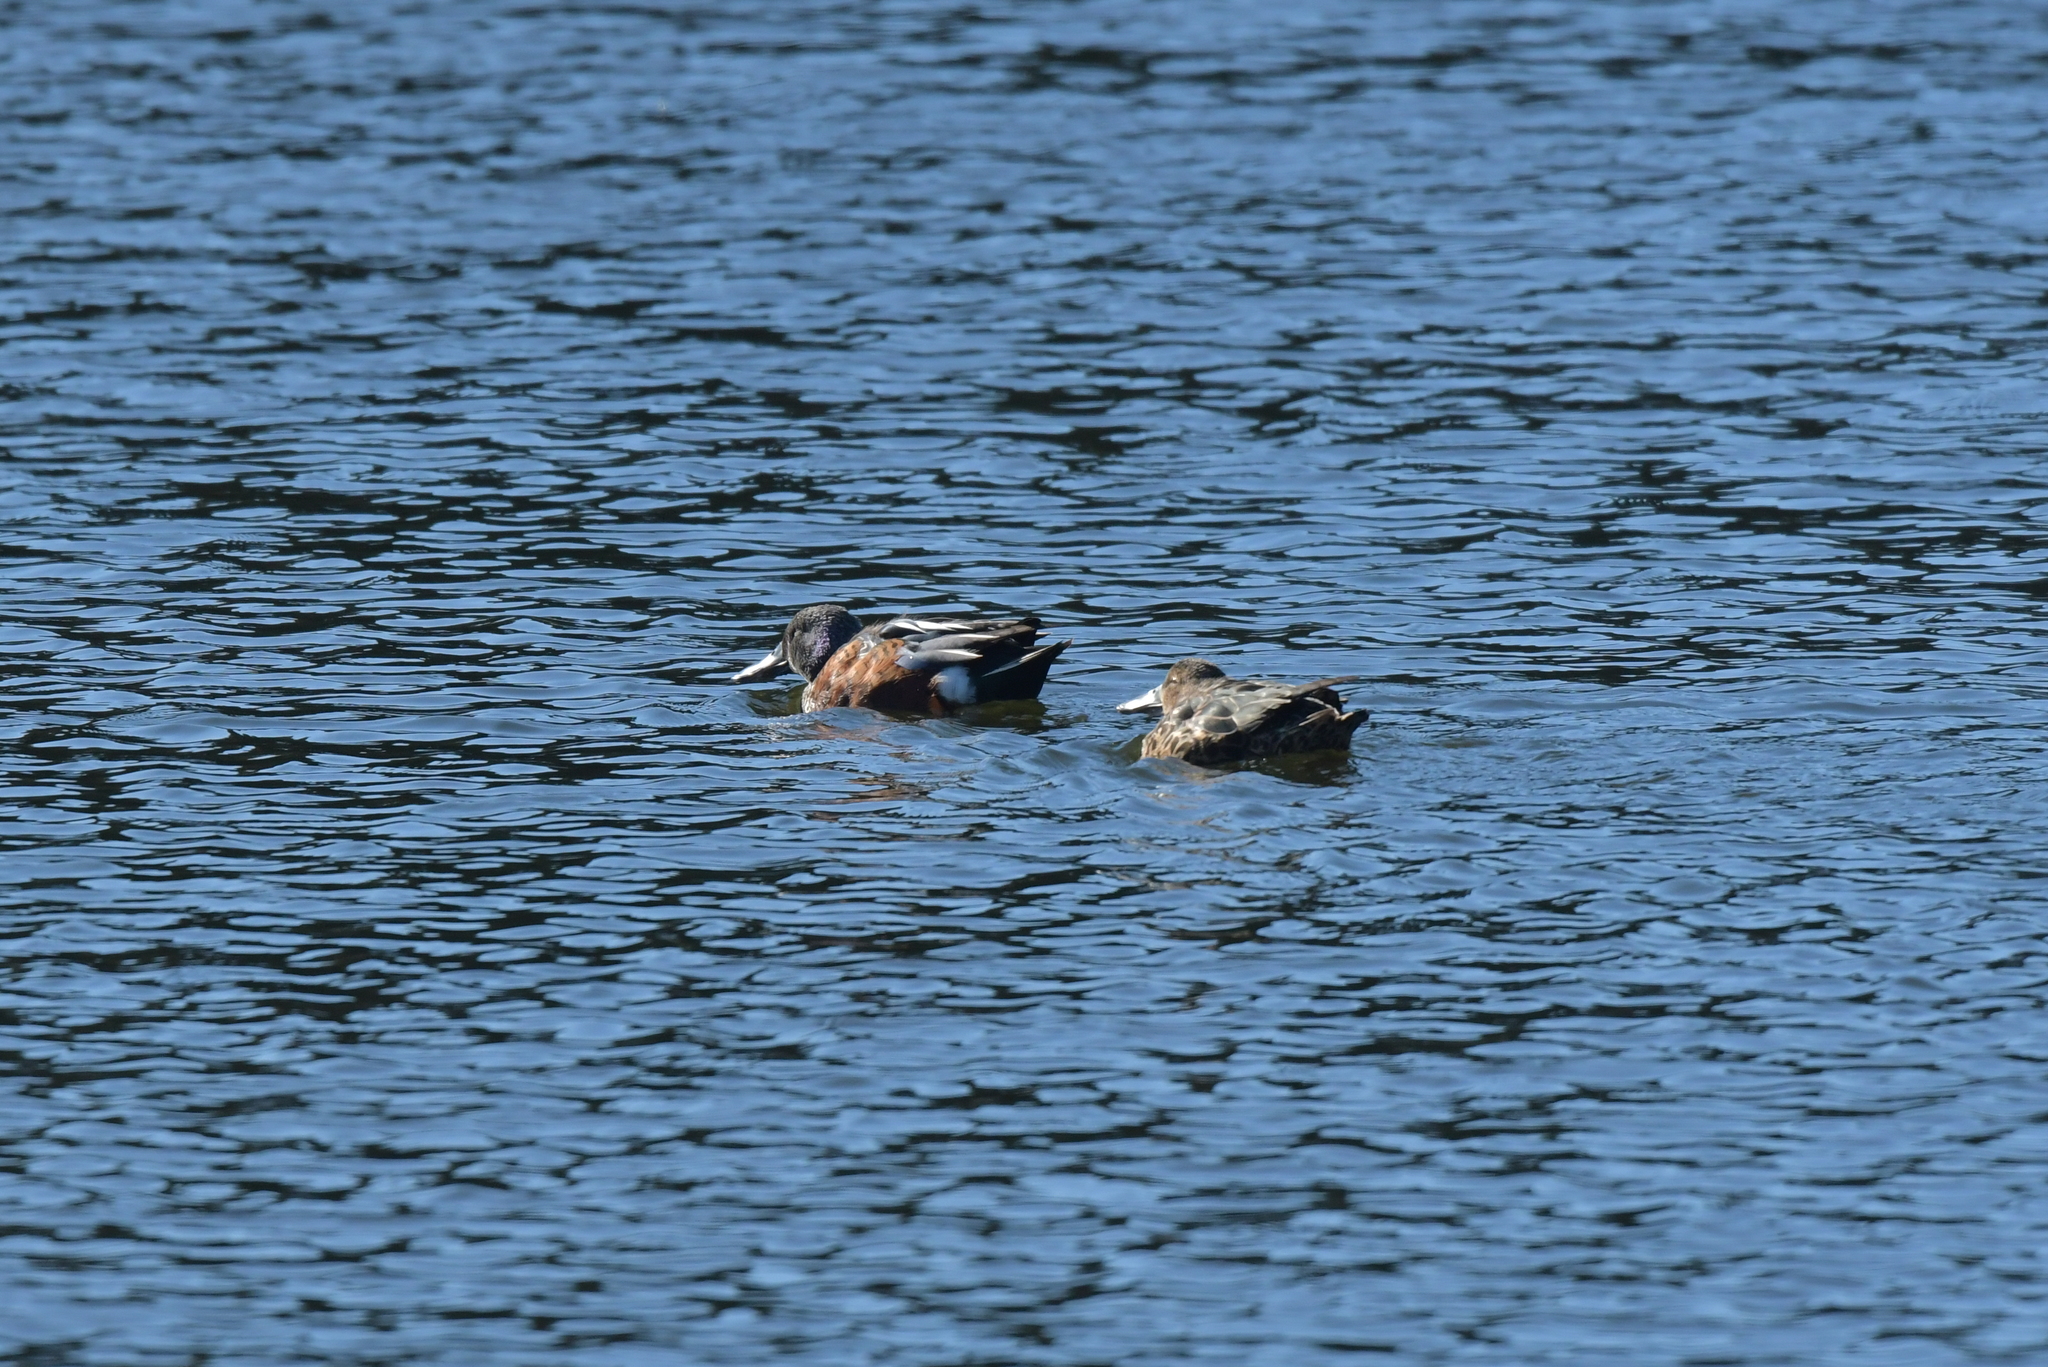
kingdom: Animalia
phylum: Chordata
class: Aves
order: Anseriformes
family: Anatidae
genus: Spatula
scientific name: Spatula rhynchotis
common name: Australian shoveler
